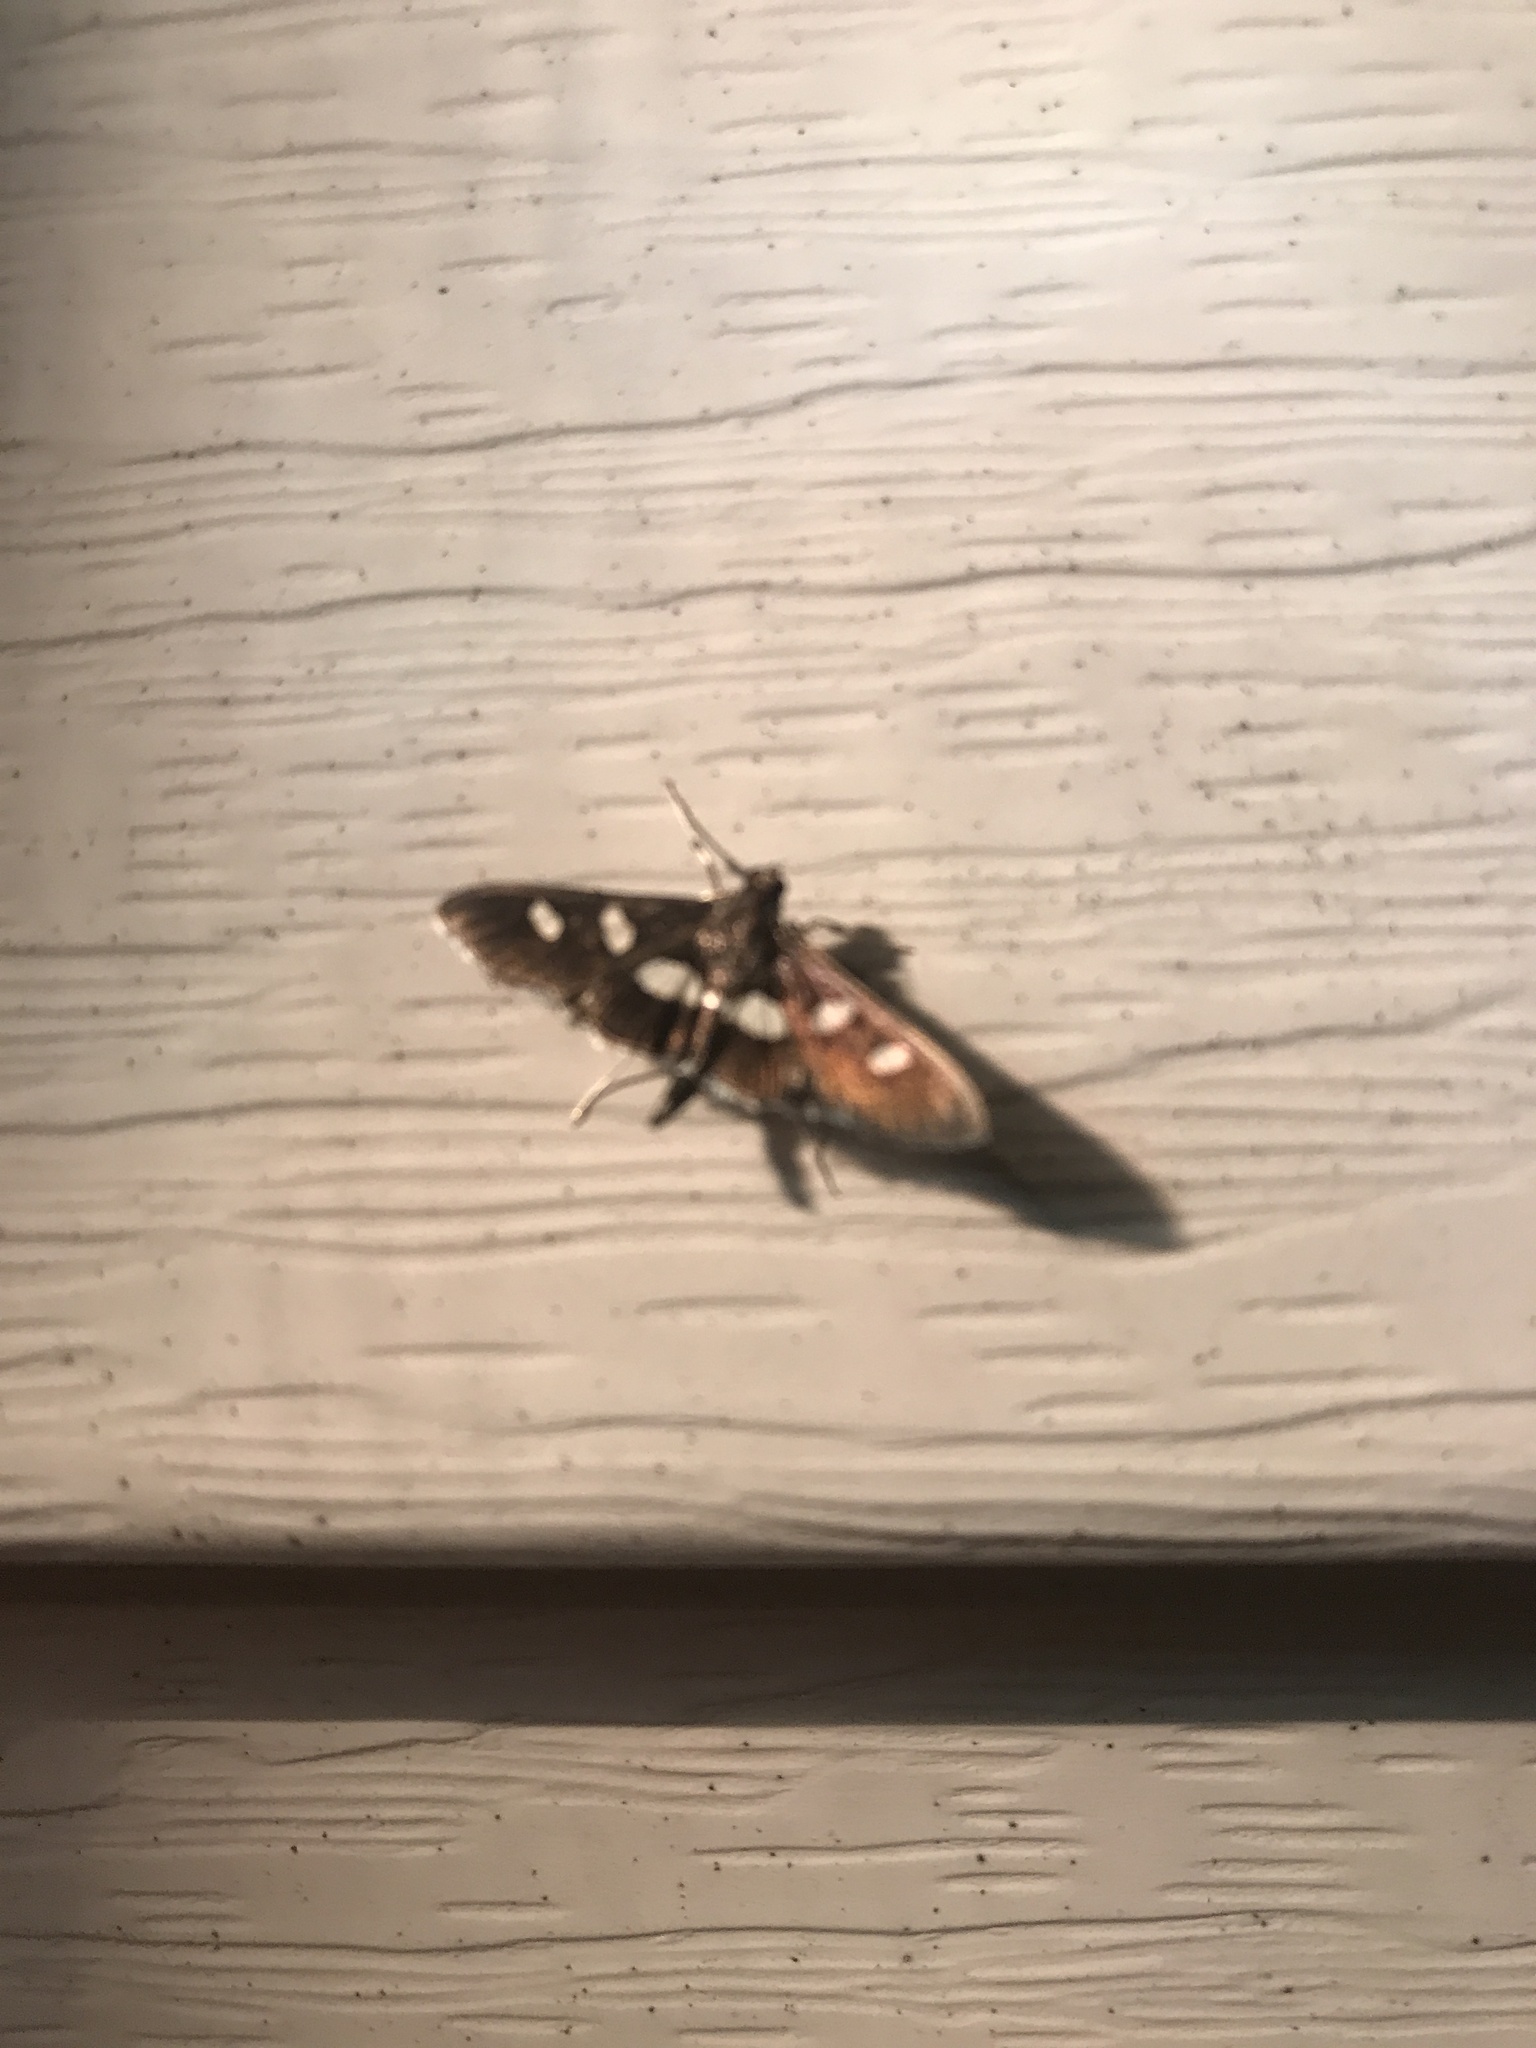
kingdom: Animalia
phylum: Arthropoda
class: Insecta
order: Lepidoptera
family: Crambidae
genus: Desmia
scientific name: Desmia
